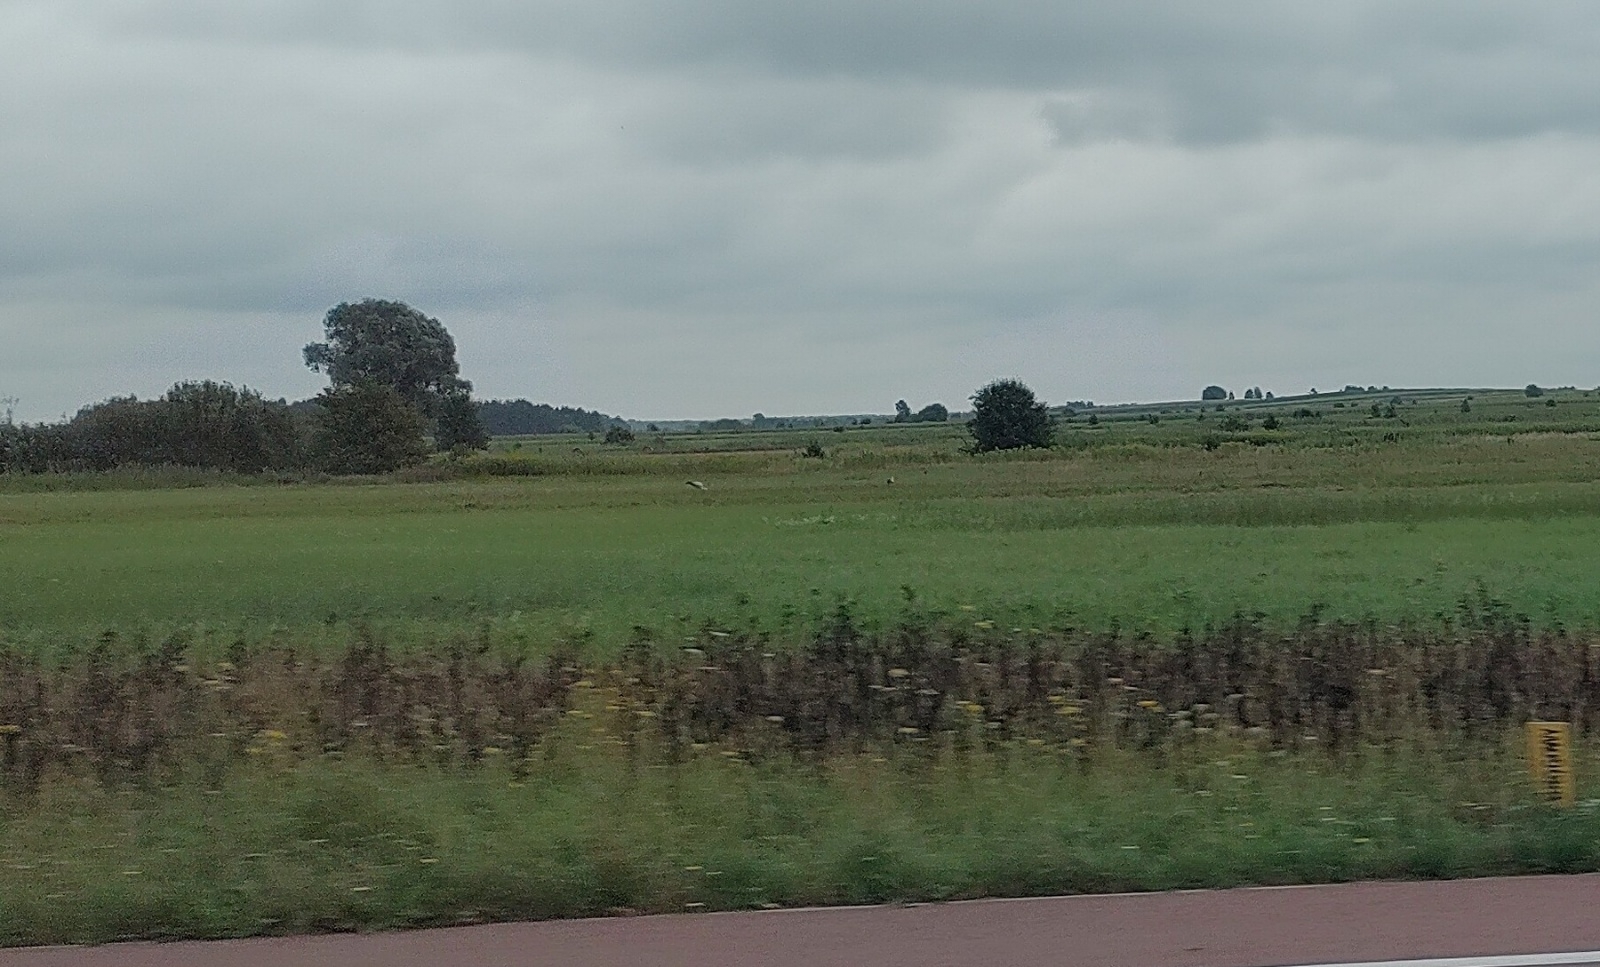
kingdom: Animalia
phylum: Chordata
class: Aves
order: Ciconiiformes
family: Ciconiidae
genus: Ciconia
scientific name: Ciconia ciconia
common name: White stork
